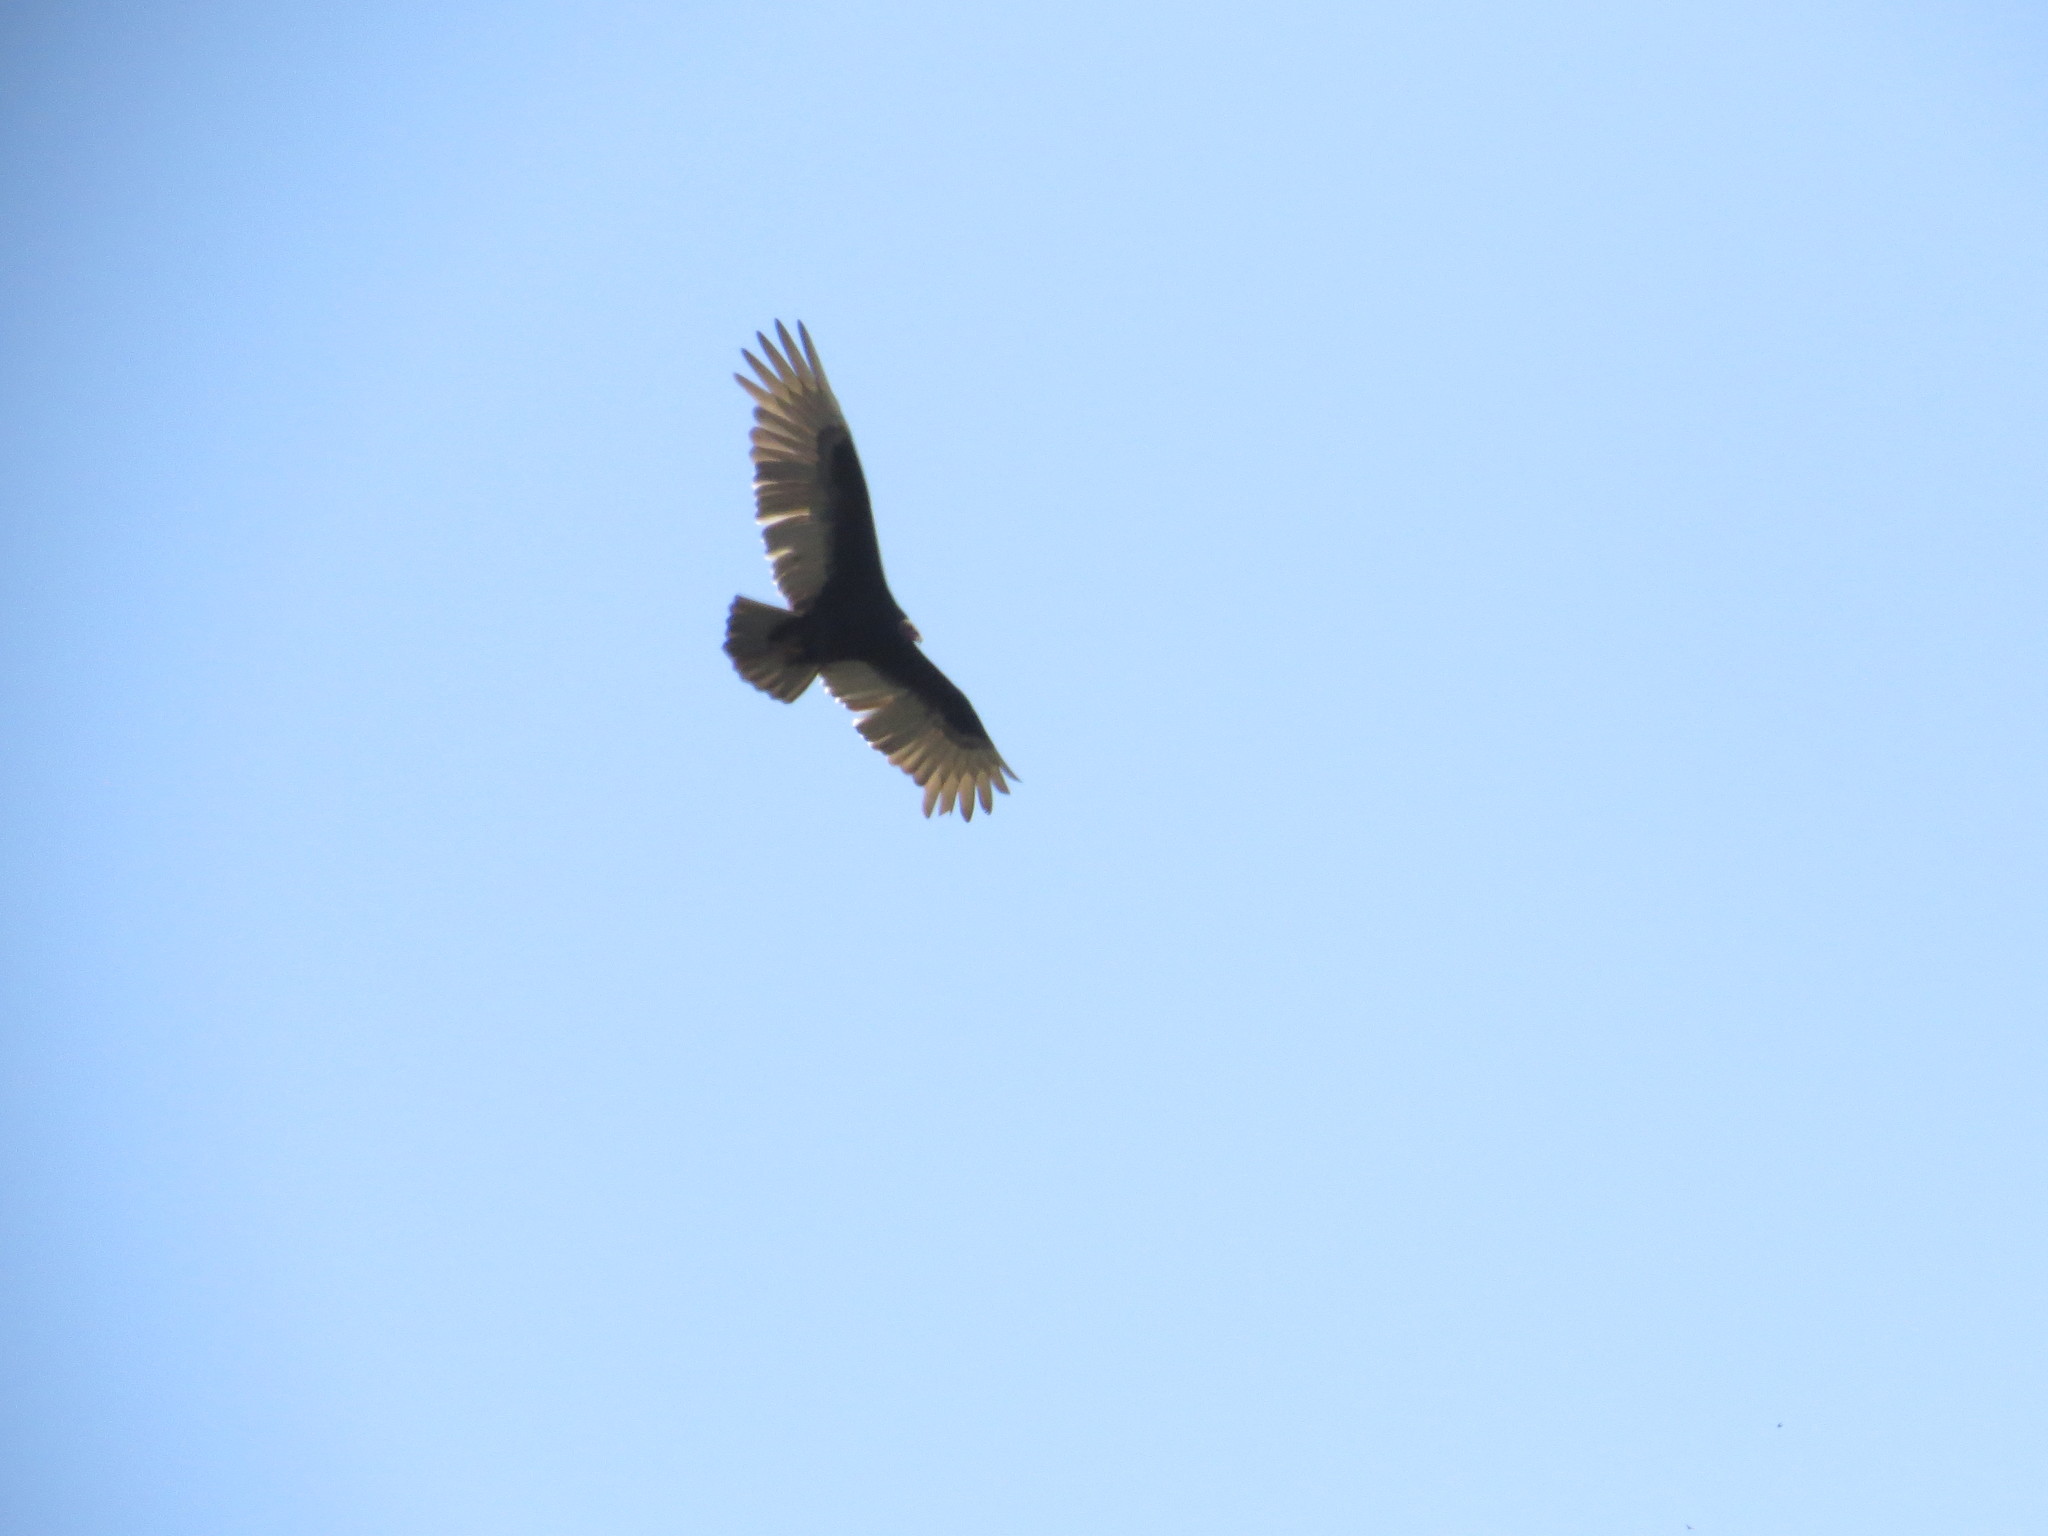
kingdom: Animalia
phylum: Chordata
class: Aves
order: Accipitriformes
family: Cathartidae
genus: Cathartes
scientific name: Cathartes aura
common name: Turkey vulture
